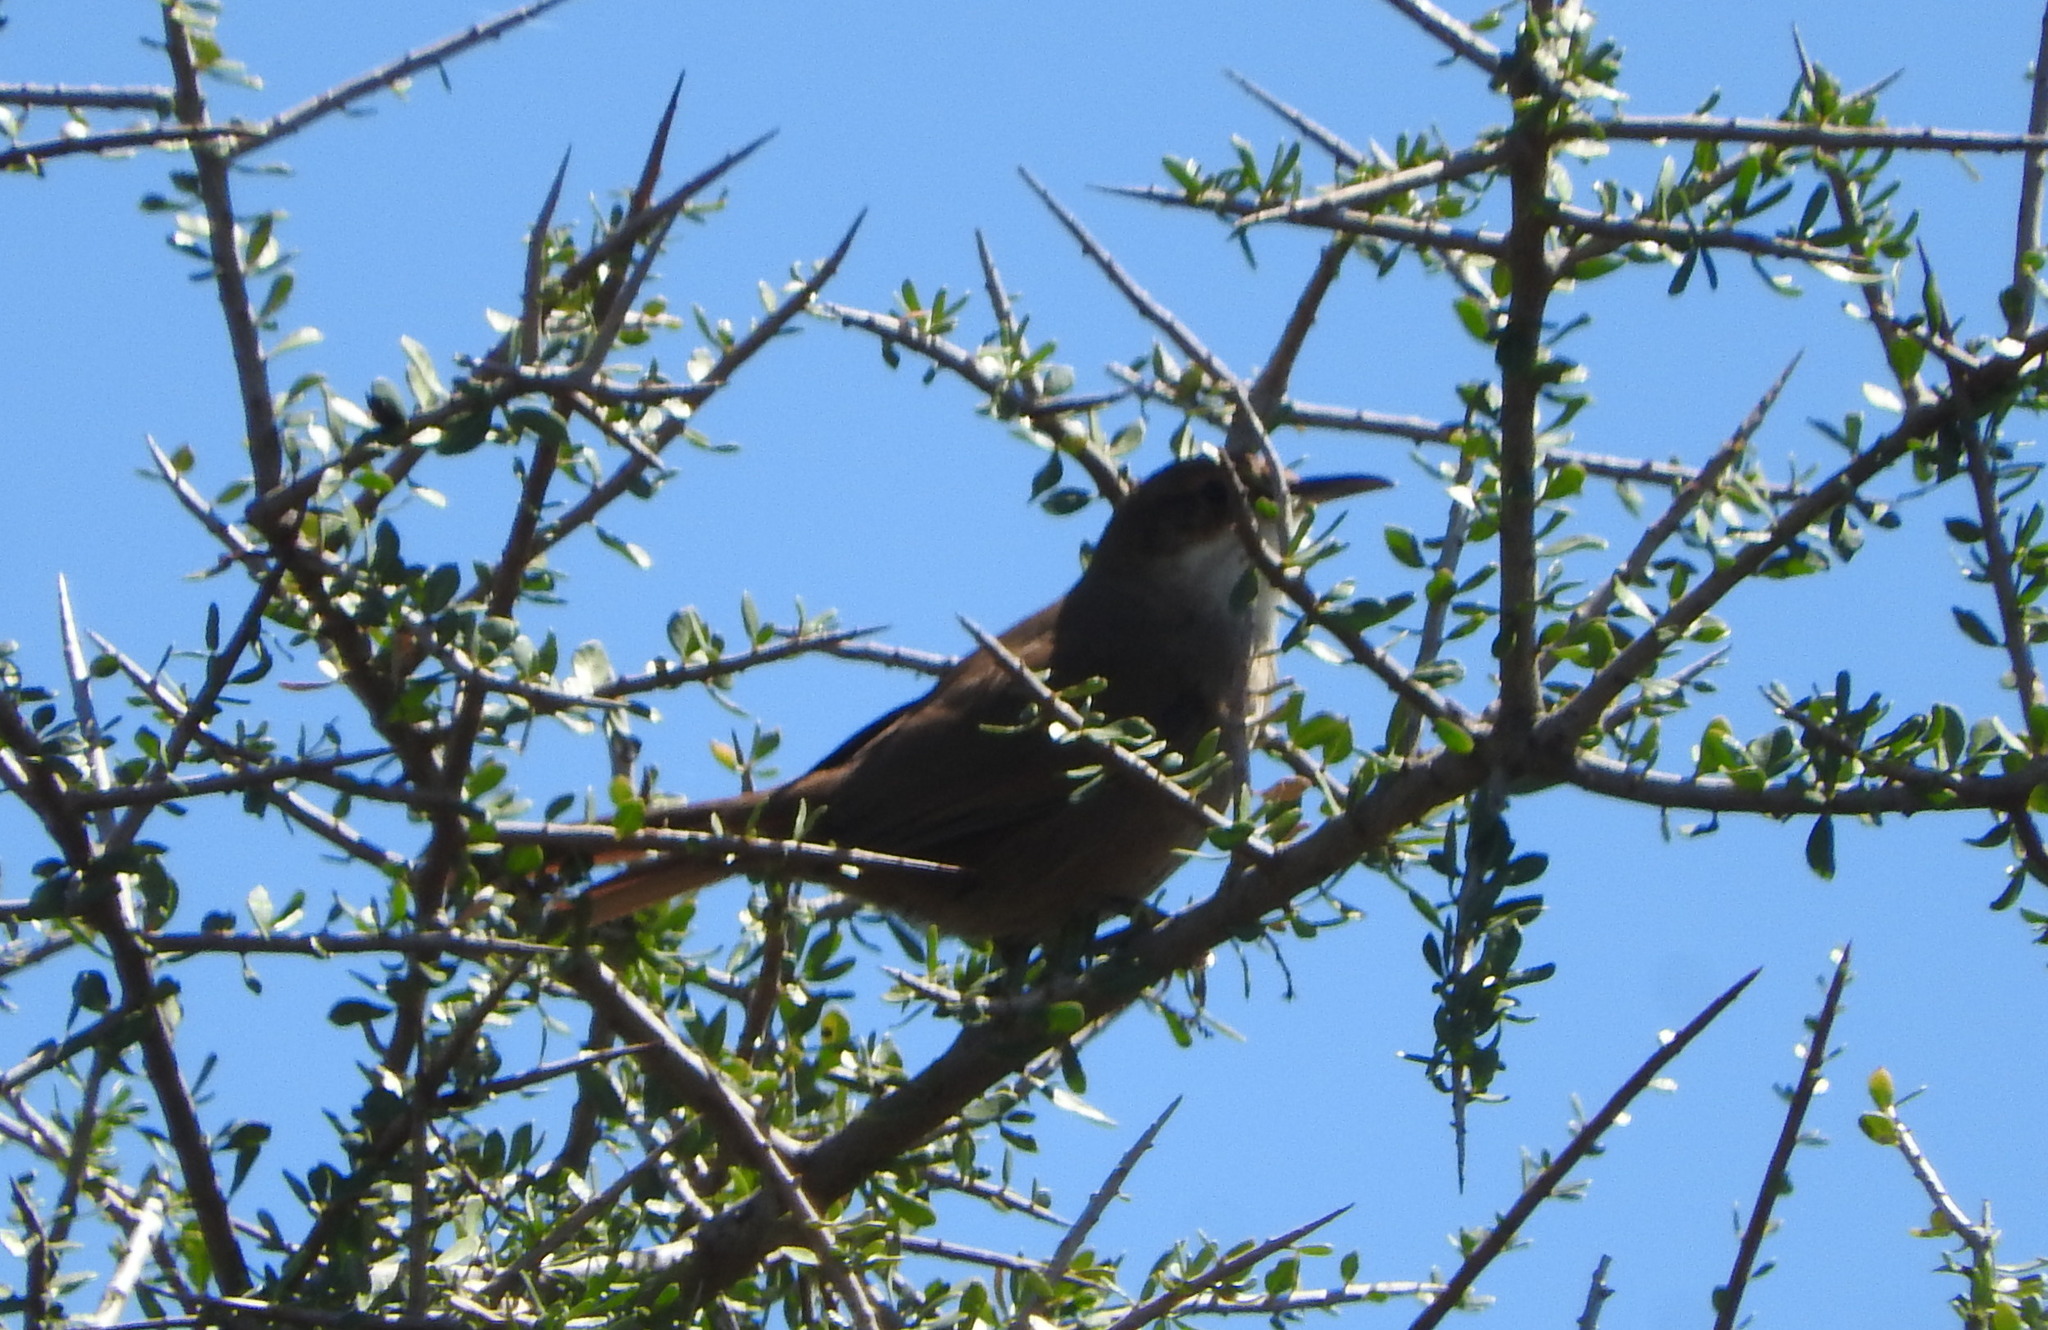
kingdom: Animalia
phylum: Chordata
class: Aves
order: Passeriformes
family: Furnariidae
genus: Upucerthia
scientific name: Upucerthia certhioides
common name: Chaco earthcreeper
